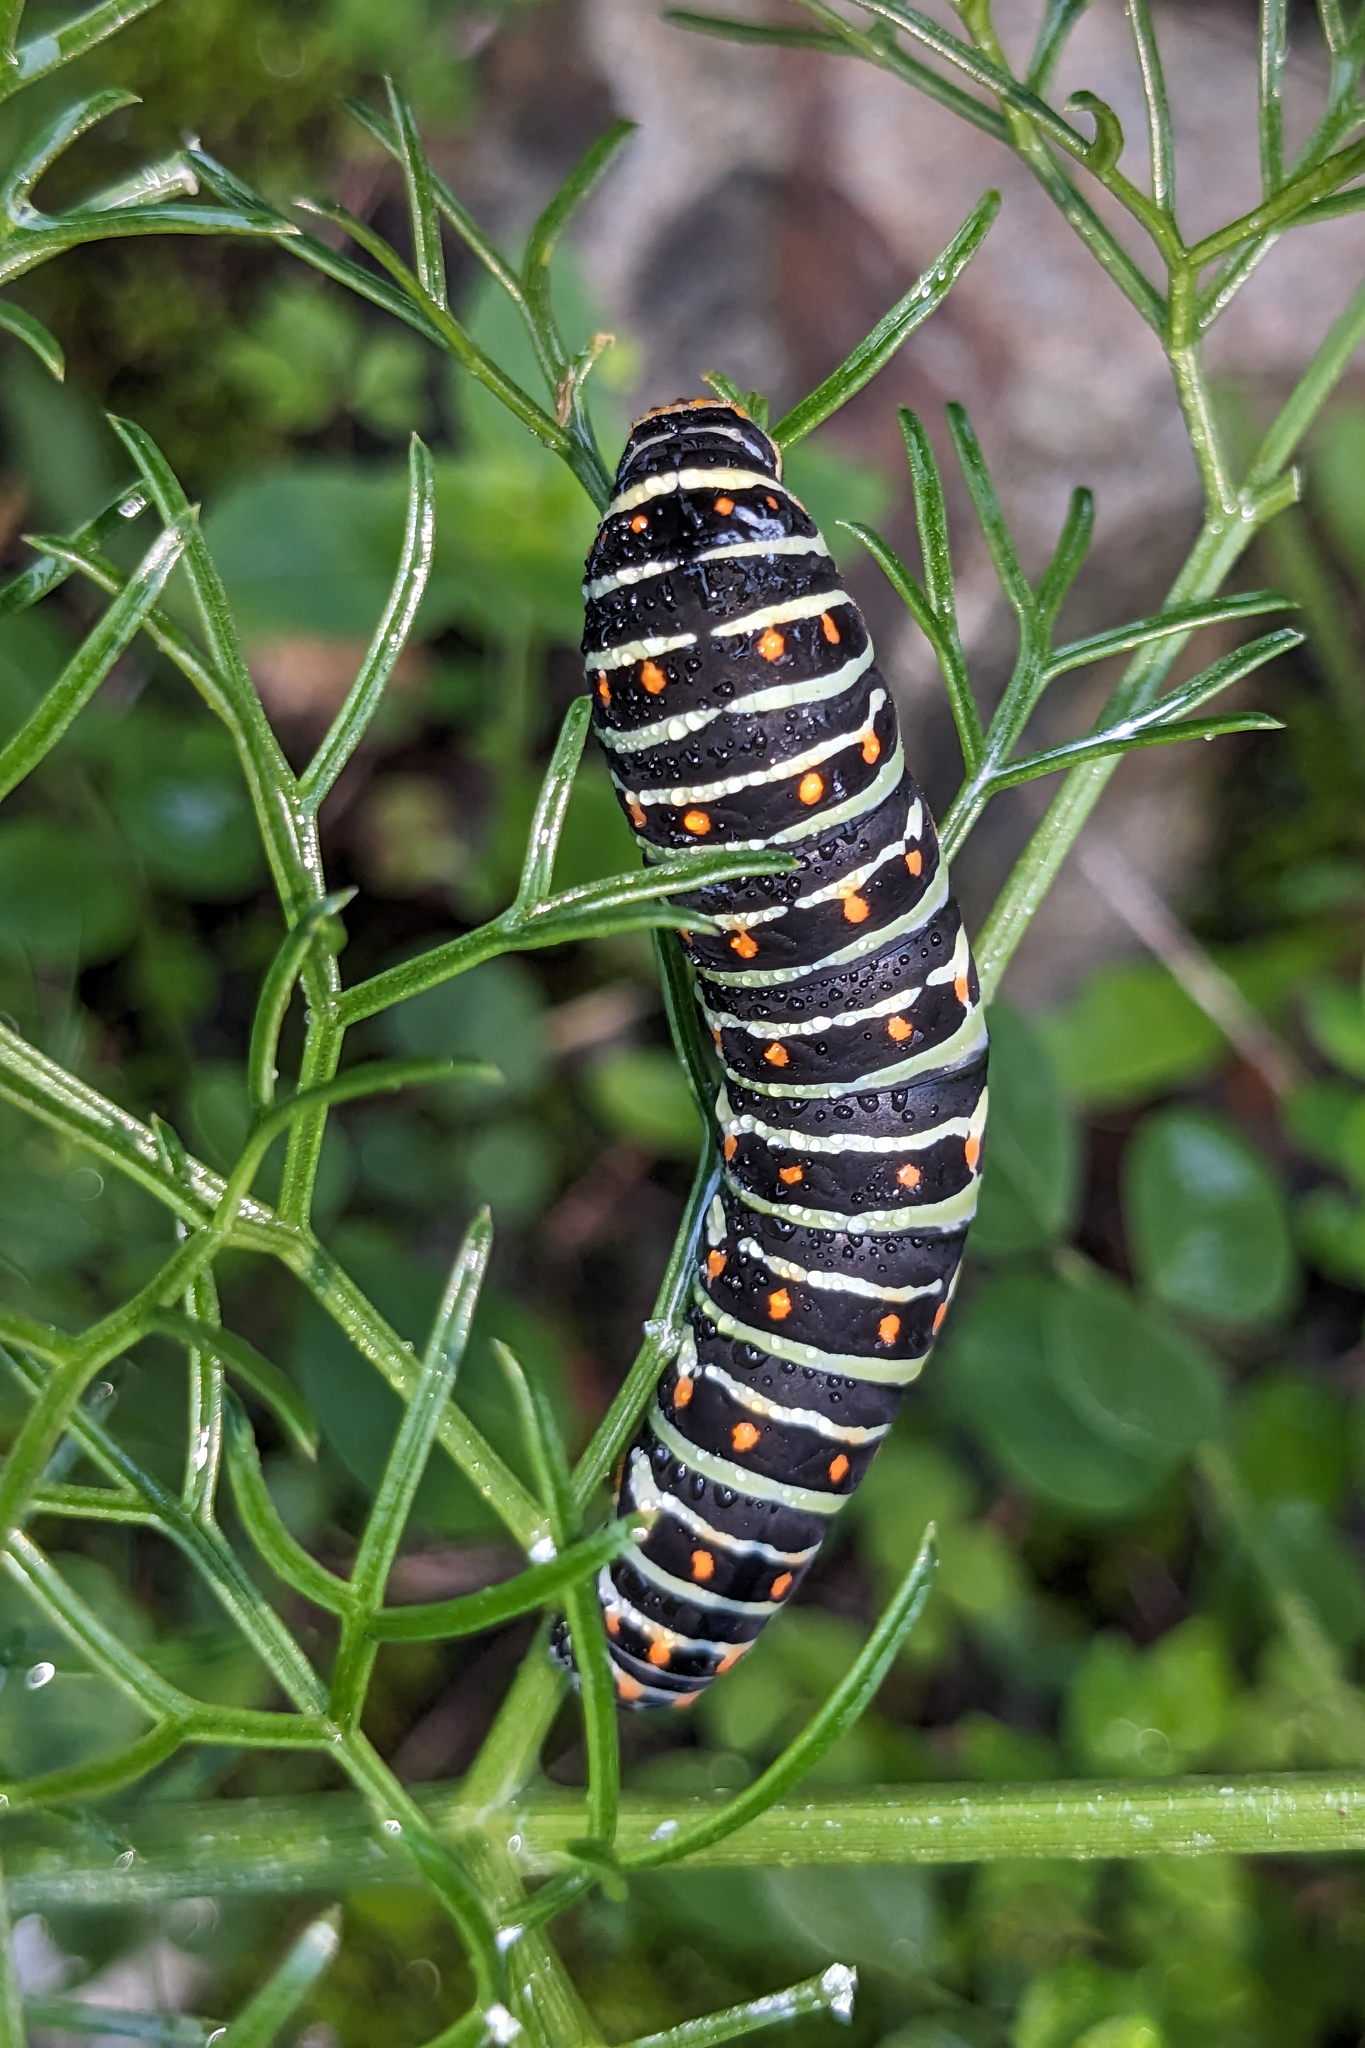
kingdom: Animalia
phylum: Arthropoda
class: Insecta
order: Lepidoptera
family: Papilionidae
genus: Papilio
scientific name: Papilio machaon
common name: Swallowtail
